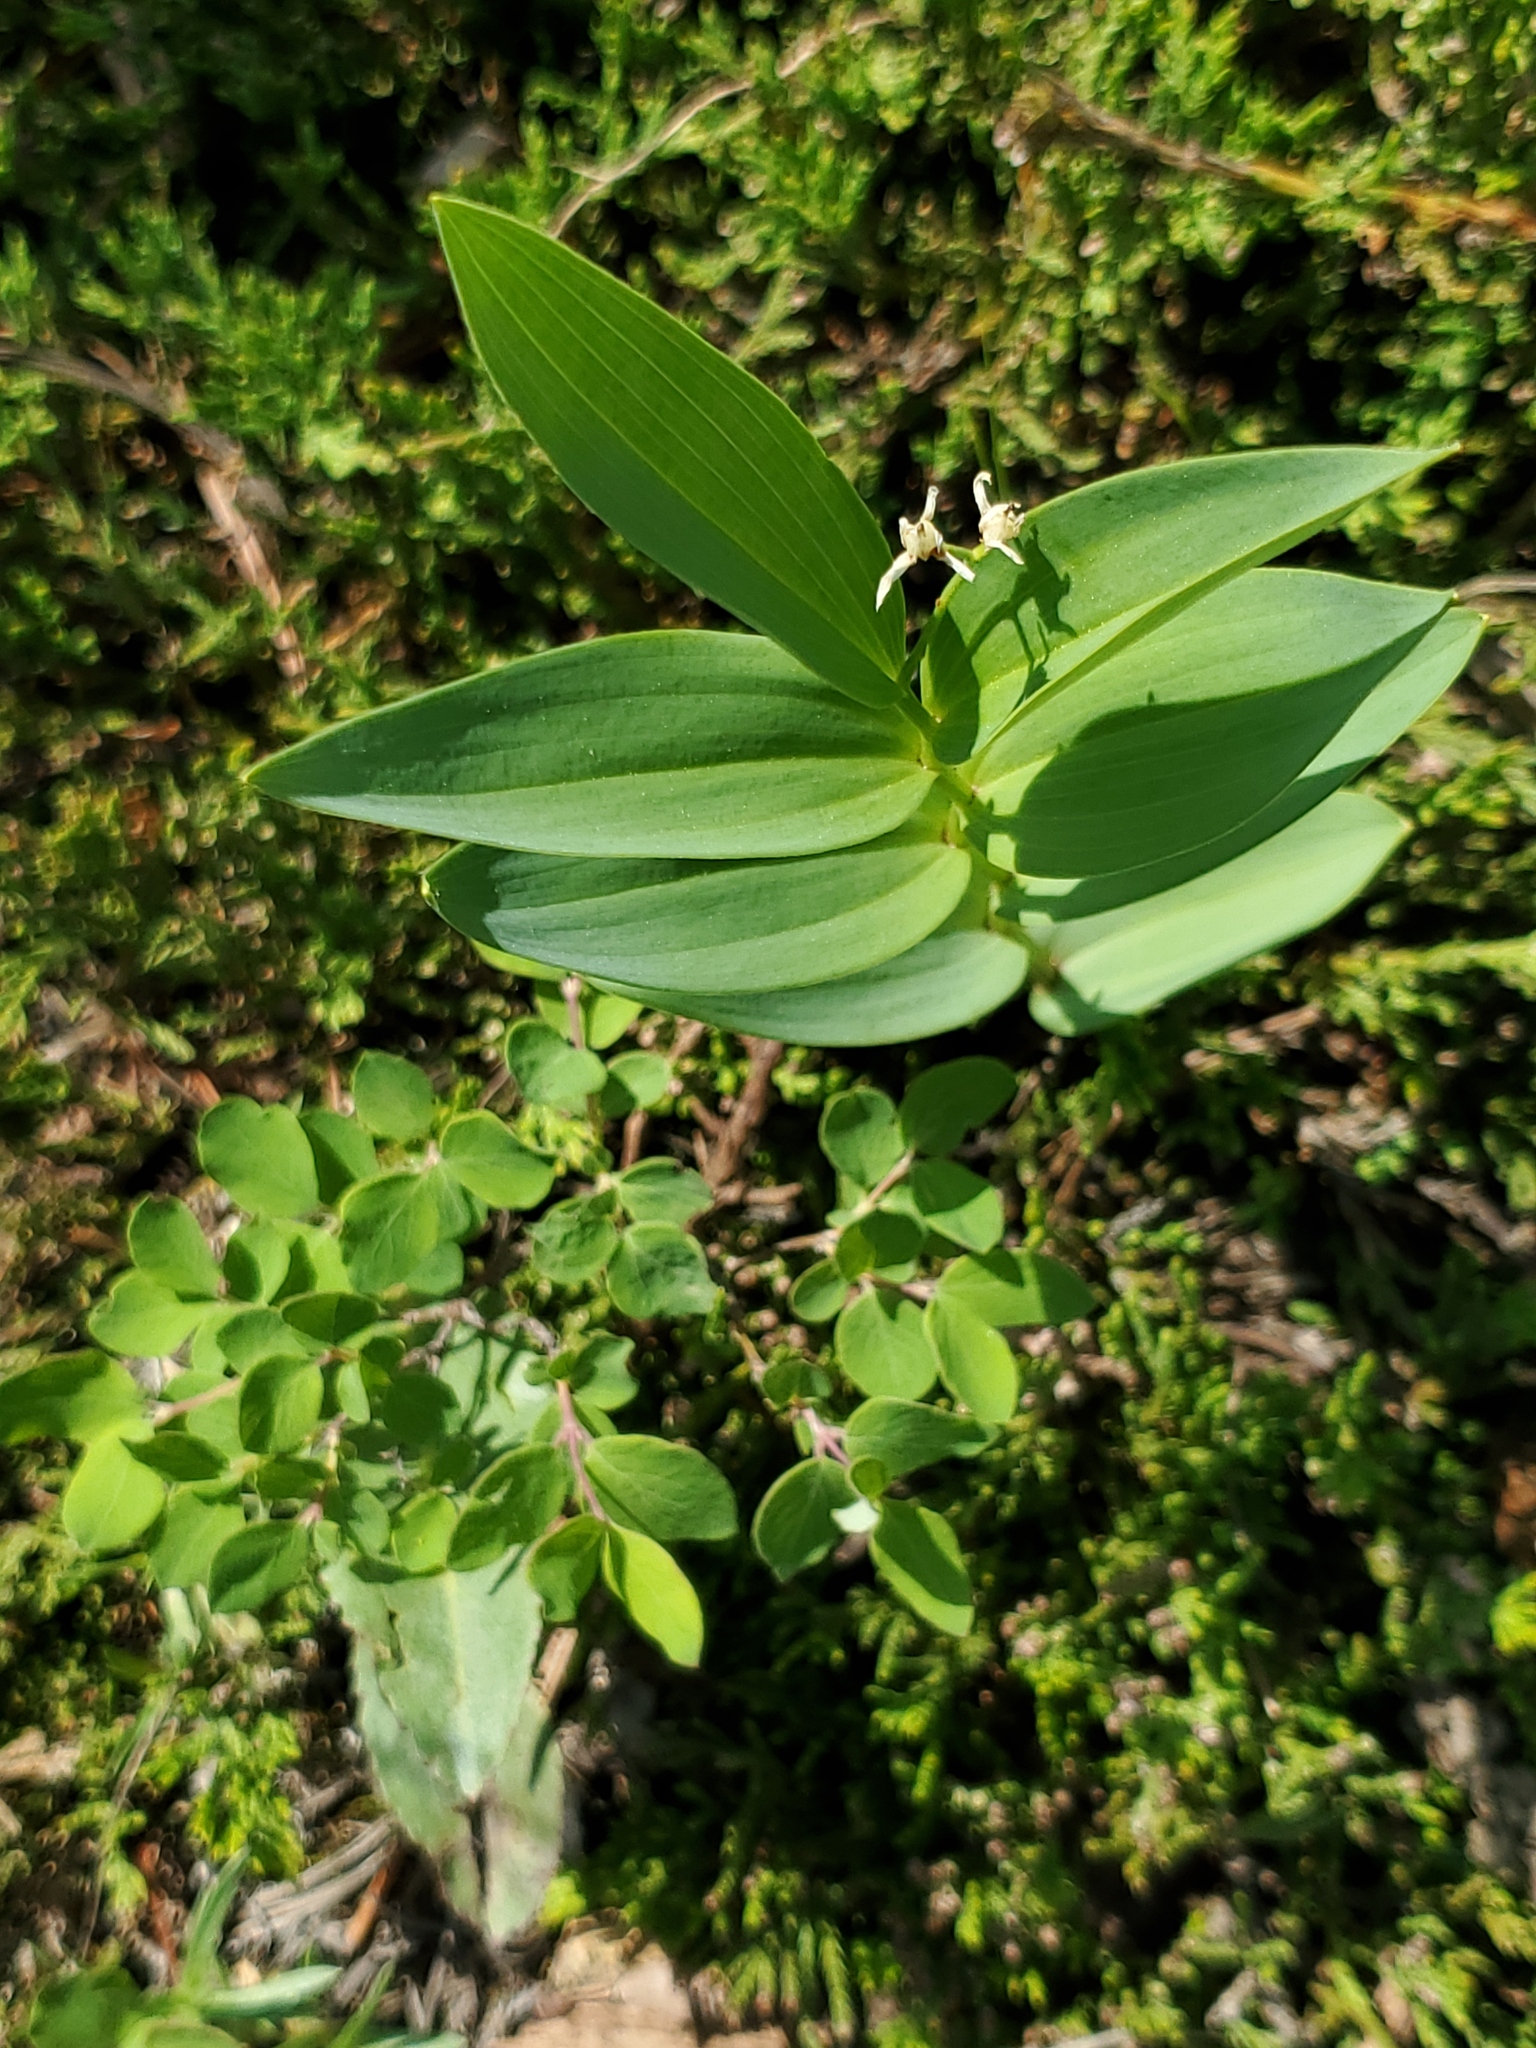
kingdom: Plantae
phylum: Tracheophyta
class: Liliopsida
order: Asparagales
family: Asparagaceae
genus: Maianthemum
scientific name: Maianthemum stellatum
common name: Little false solomon's seal
